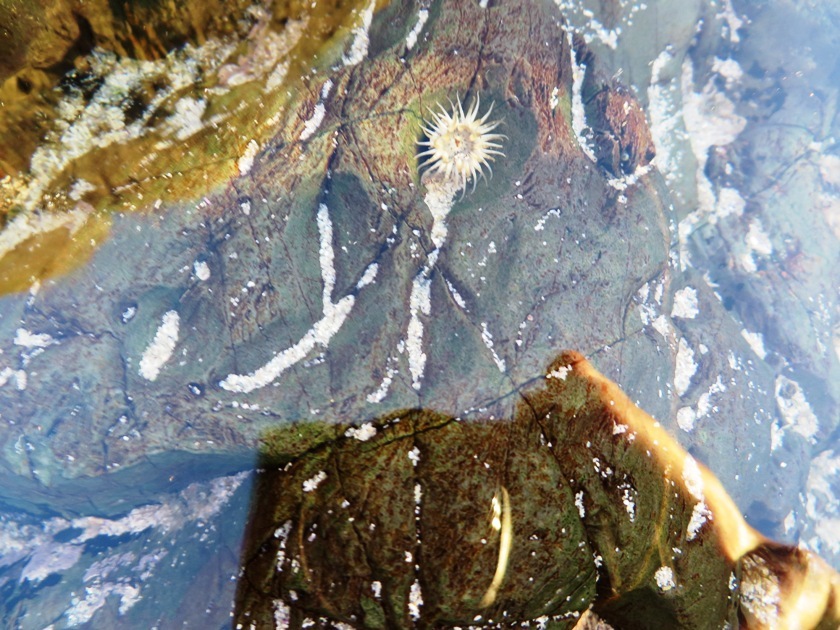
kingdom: Animalia
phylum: Cnidaria
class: Anthozoa
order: Actiniaria
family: Actiniidae
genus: Anthopleura
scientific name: Anthopleura michaelseni
